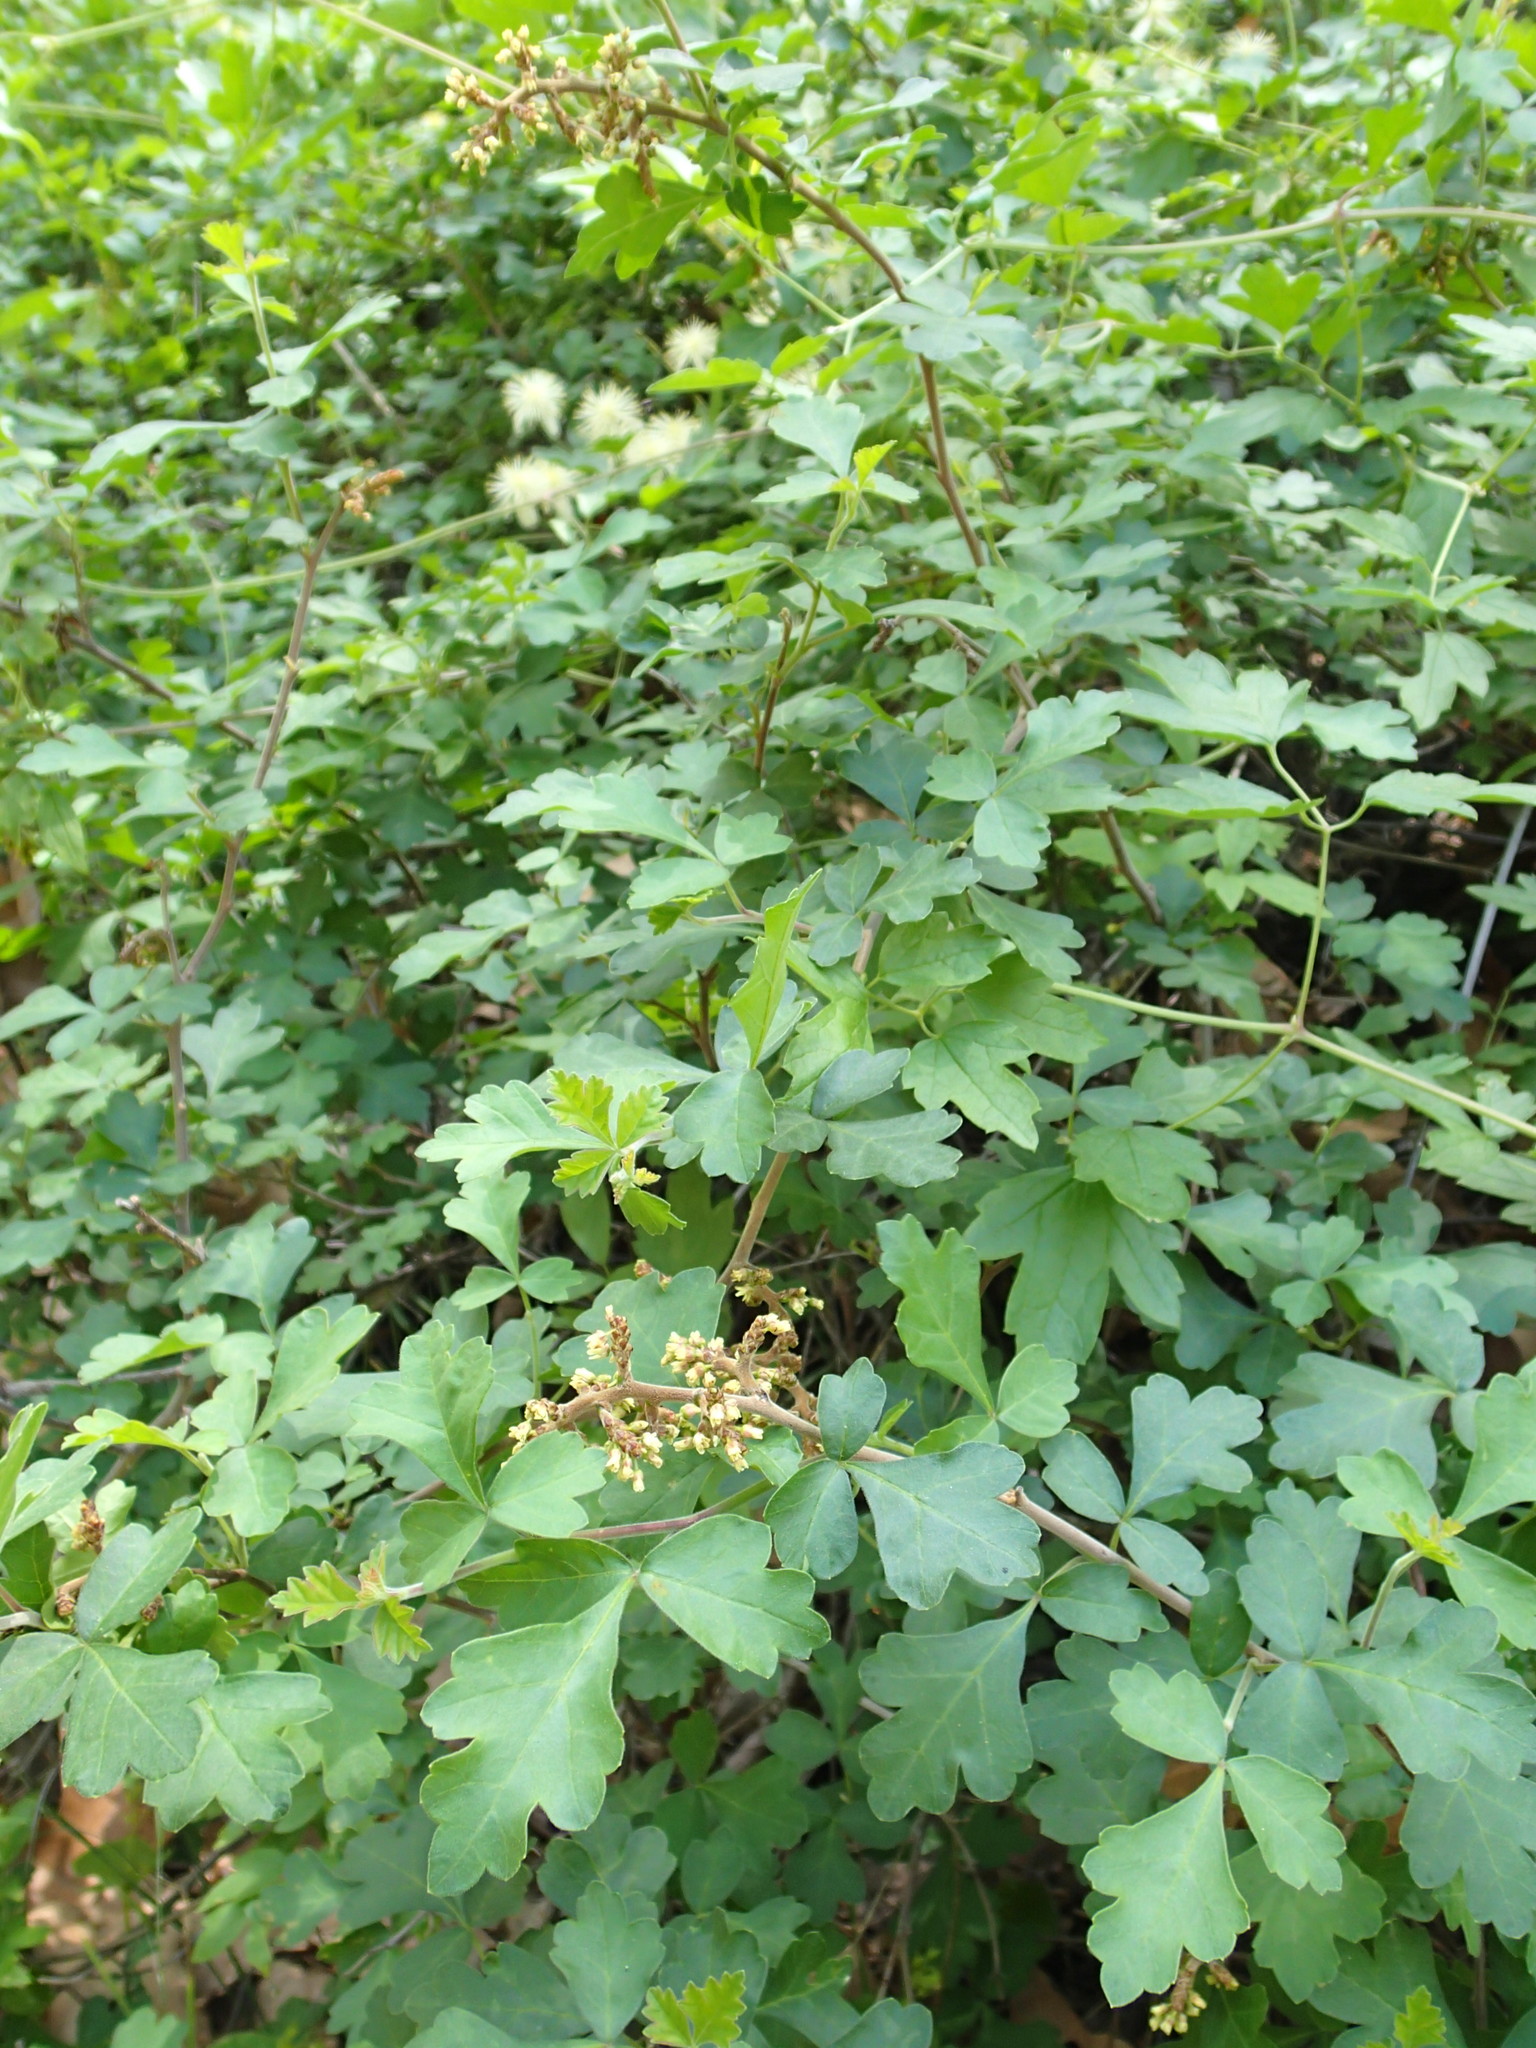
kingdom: Plantae
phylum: Tracheophyta
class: Magnoliopsida
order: Sapindales
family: Anacardiaceae
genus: Rhus
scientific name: Rhus aromatica
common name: Aromatic sumac
